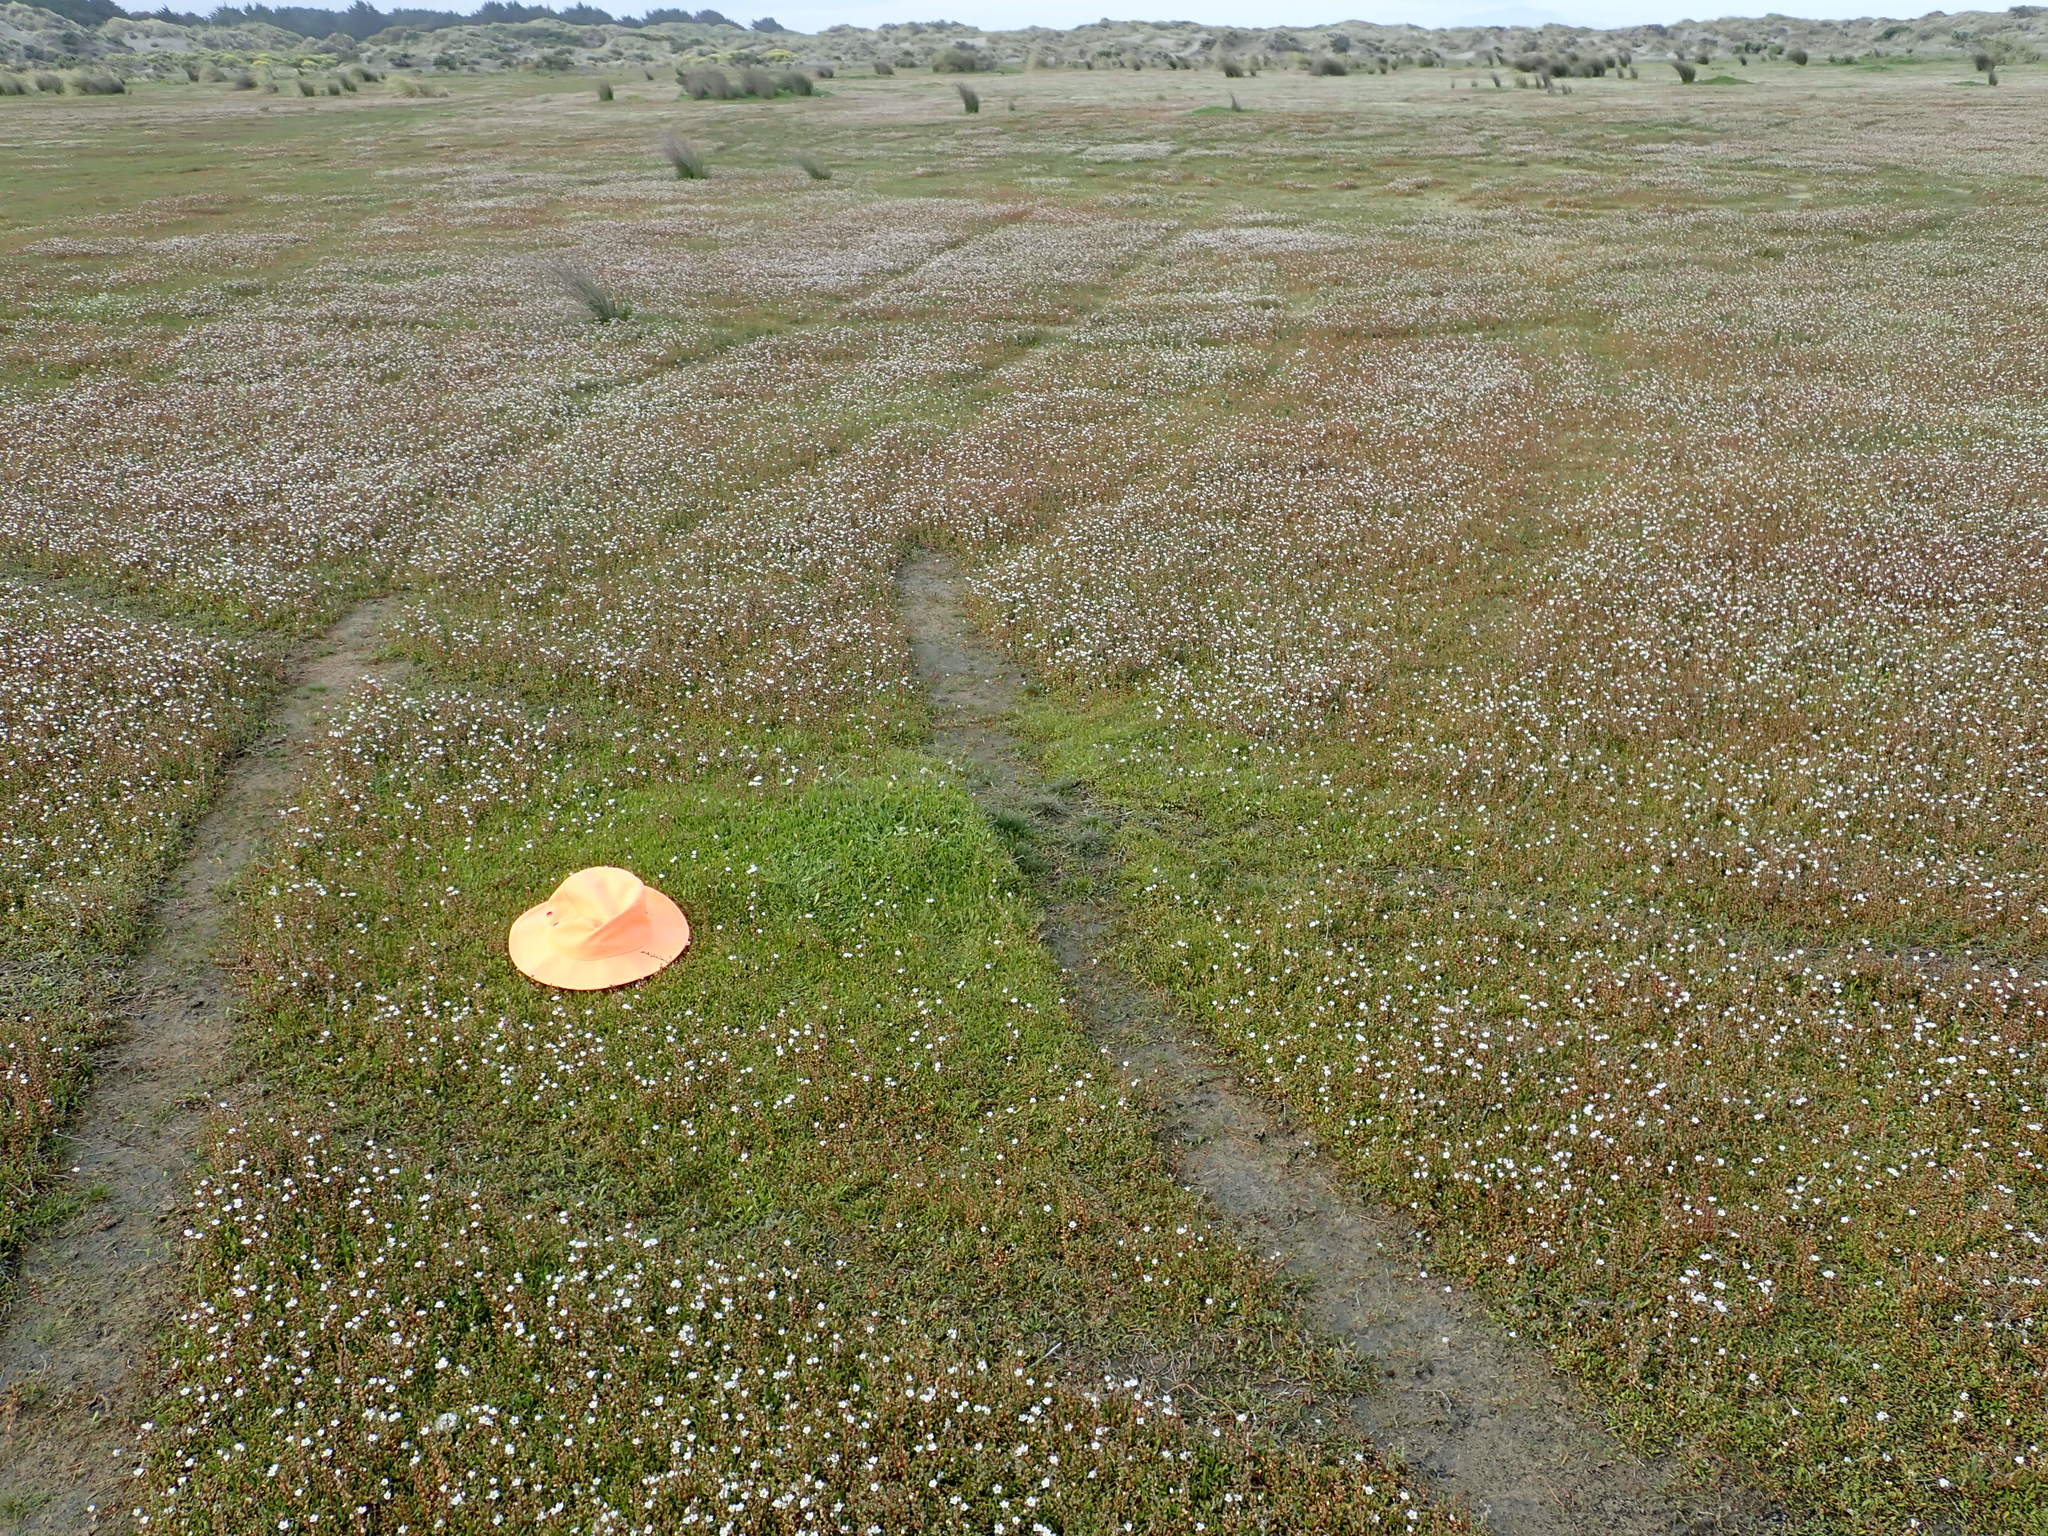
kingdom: Plantae
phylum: Tracheophyta
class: Magnoliopsida
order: Asterales
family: Goodeniaceae
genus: Goodenia
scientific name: Goodenia radicans
